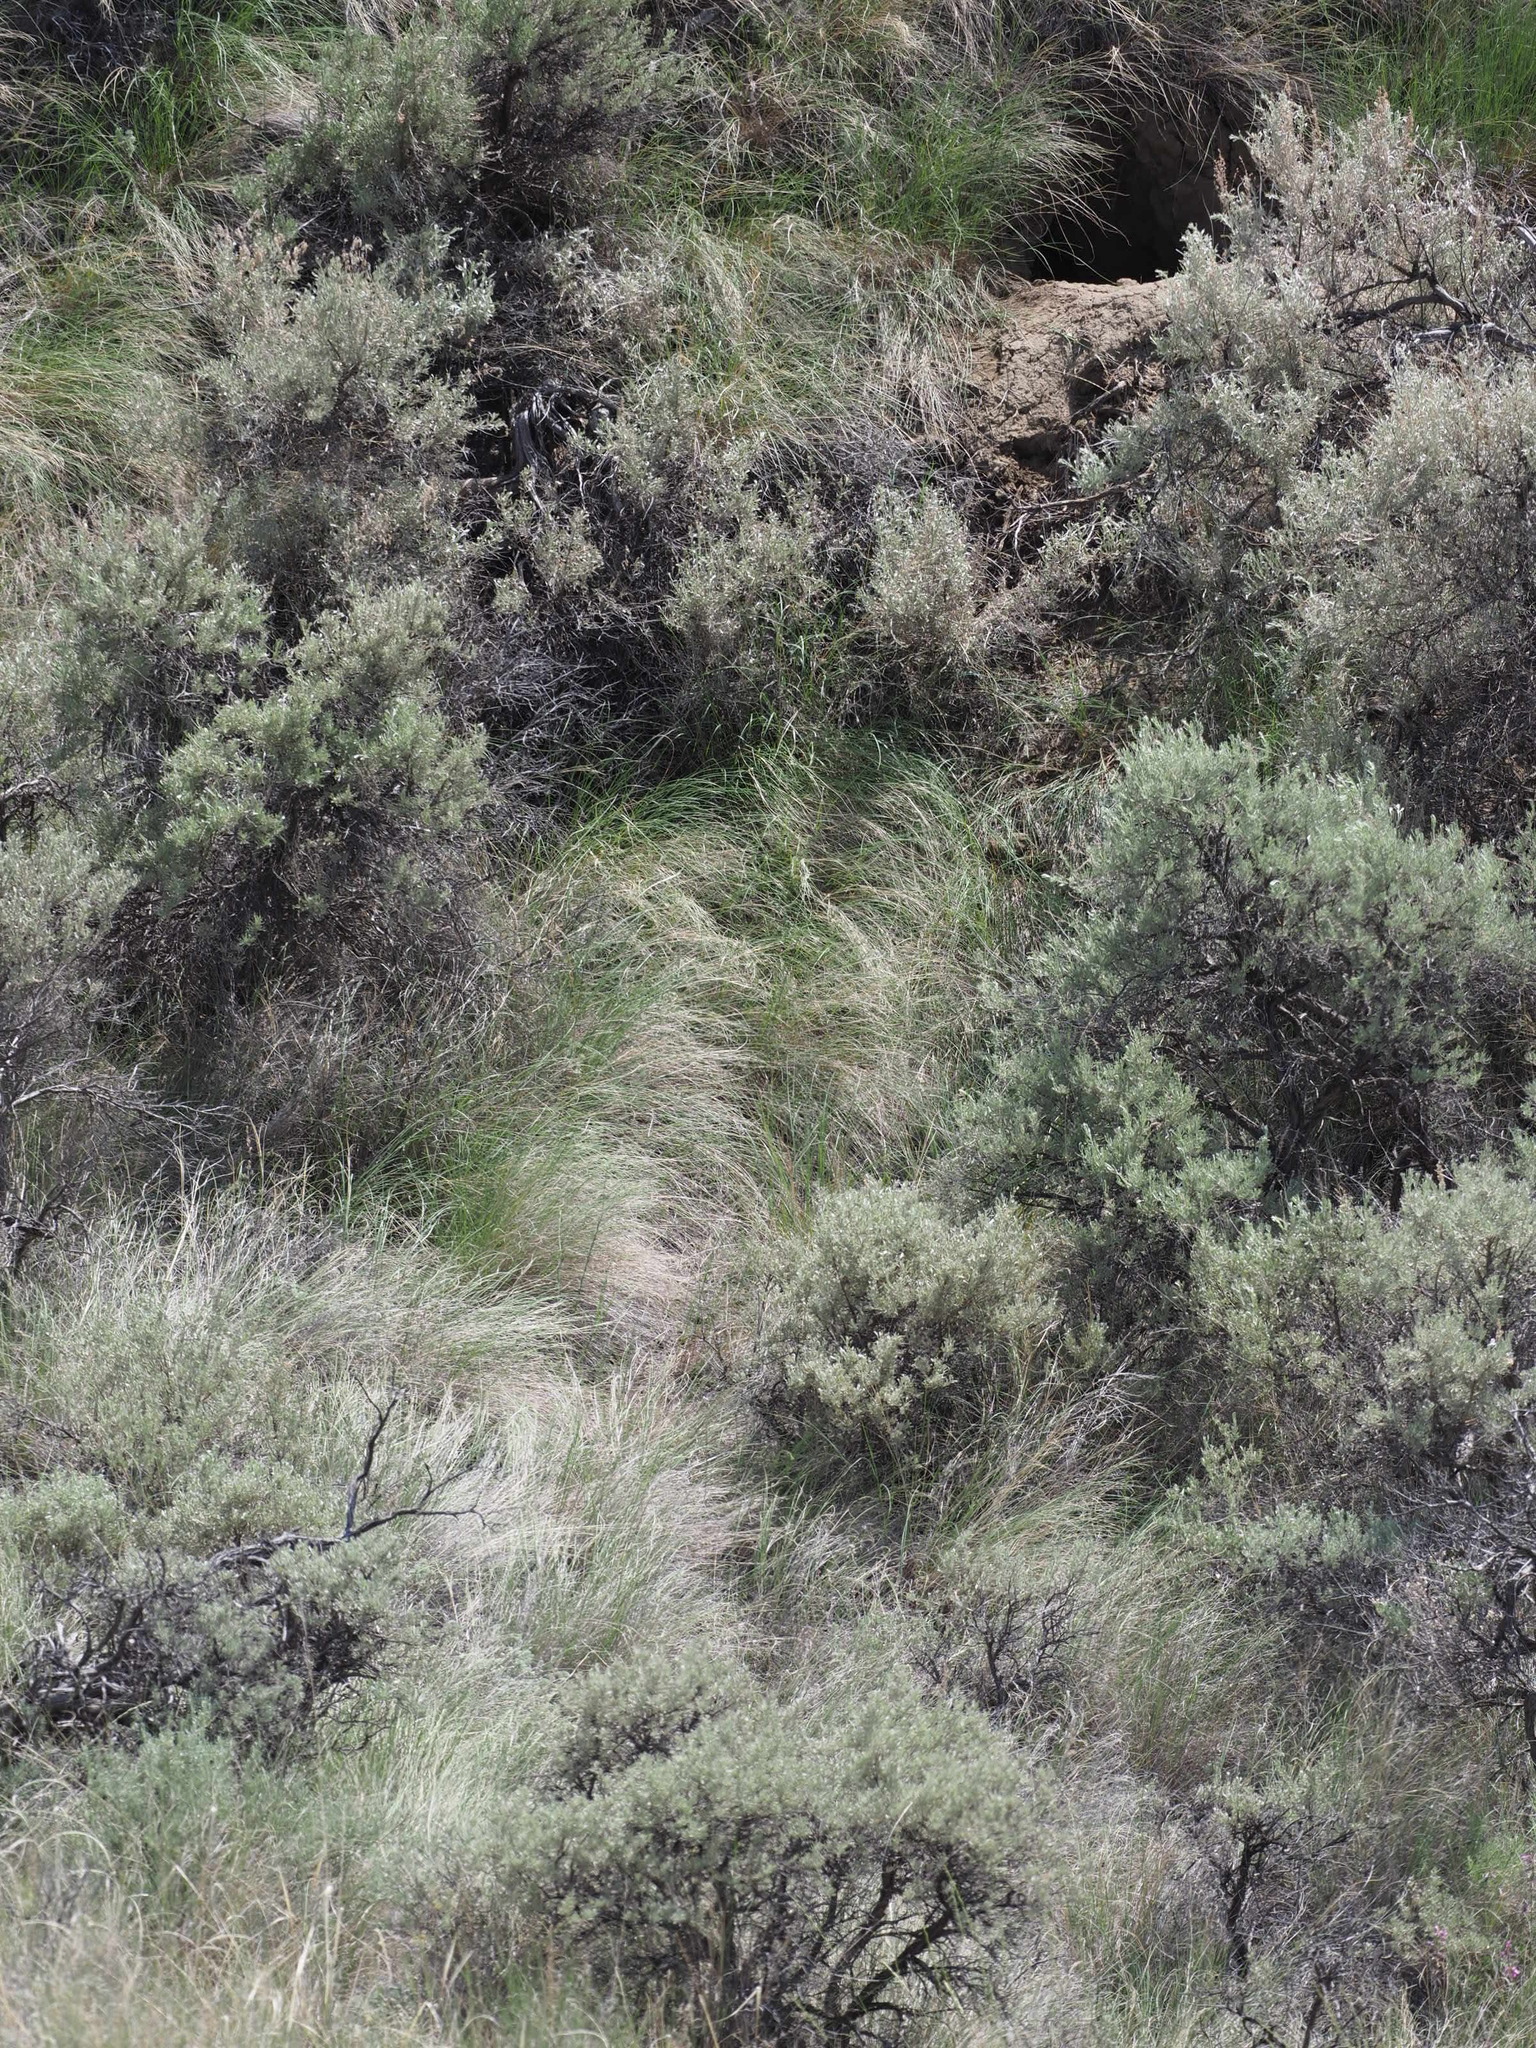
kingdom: Animalia
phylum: Chordata
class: Mammalia
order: Carnivora
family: Mustelidae
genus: Taxidea
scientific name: Taxidea taxus
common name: American badger
